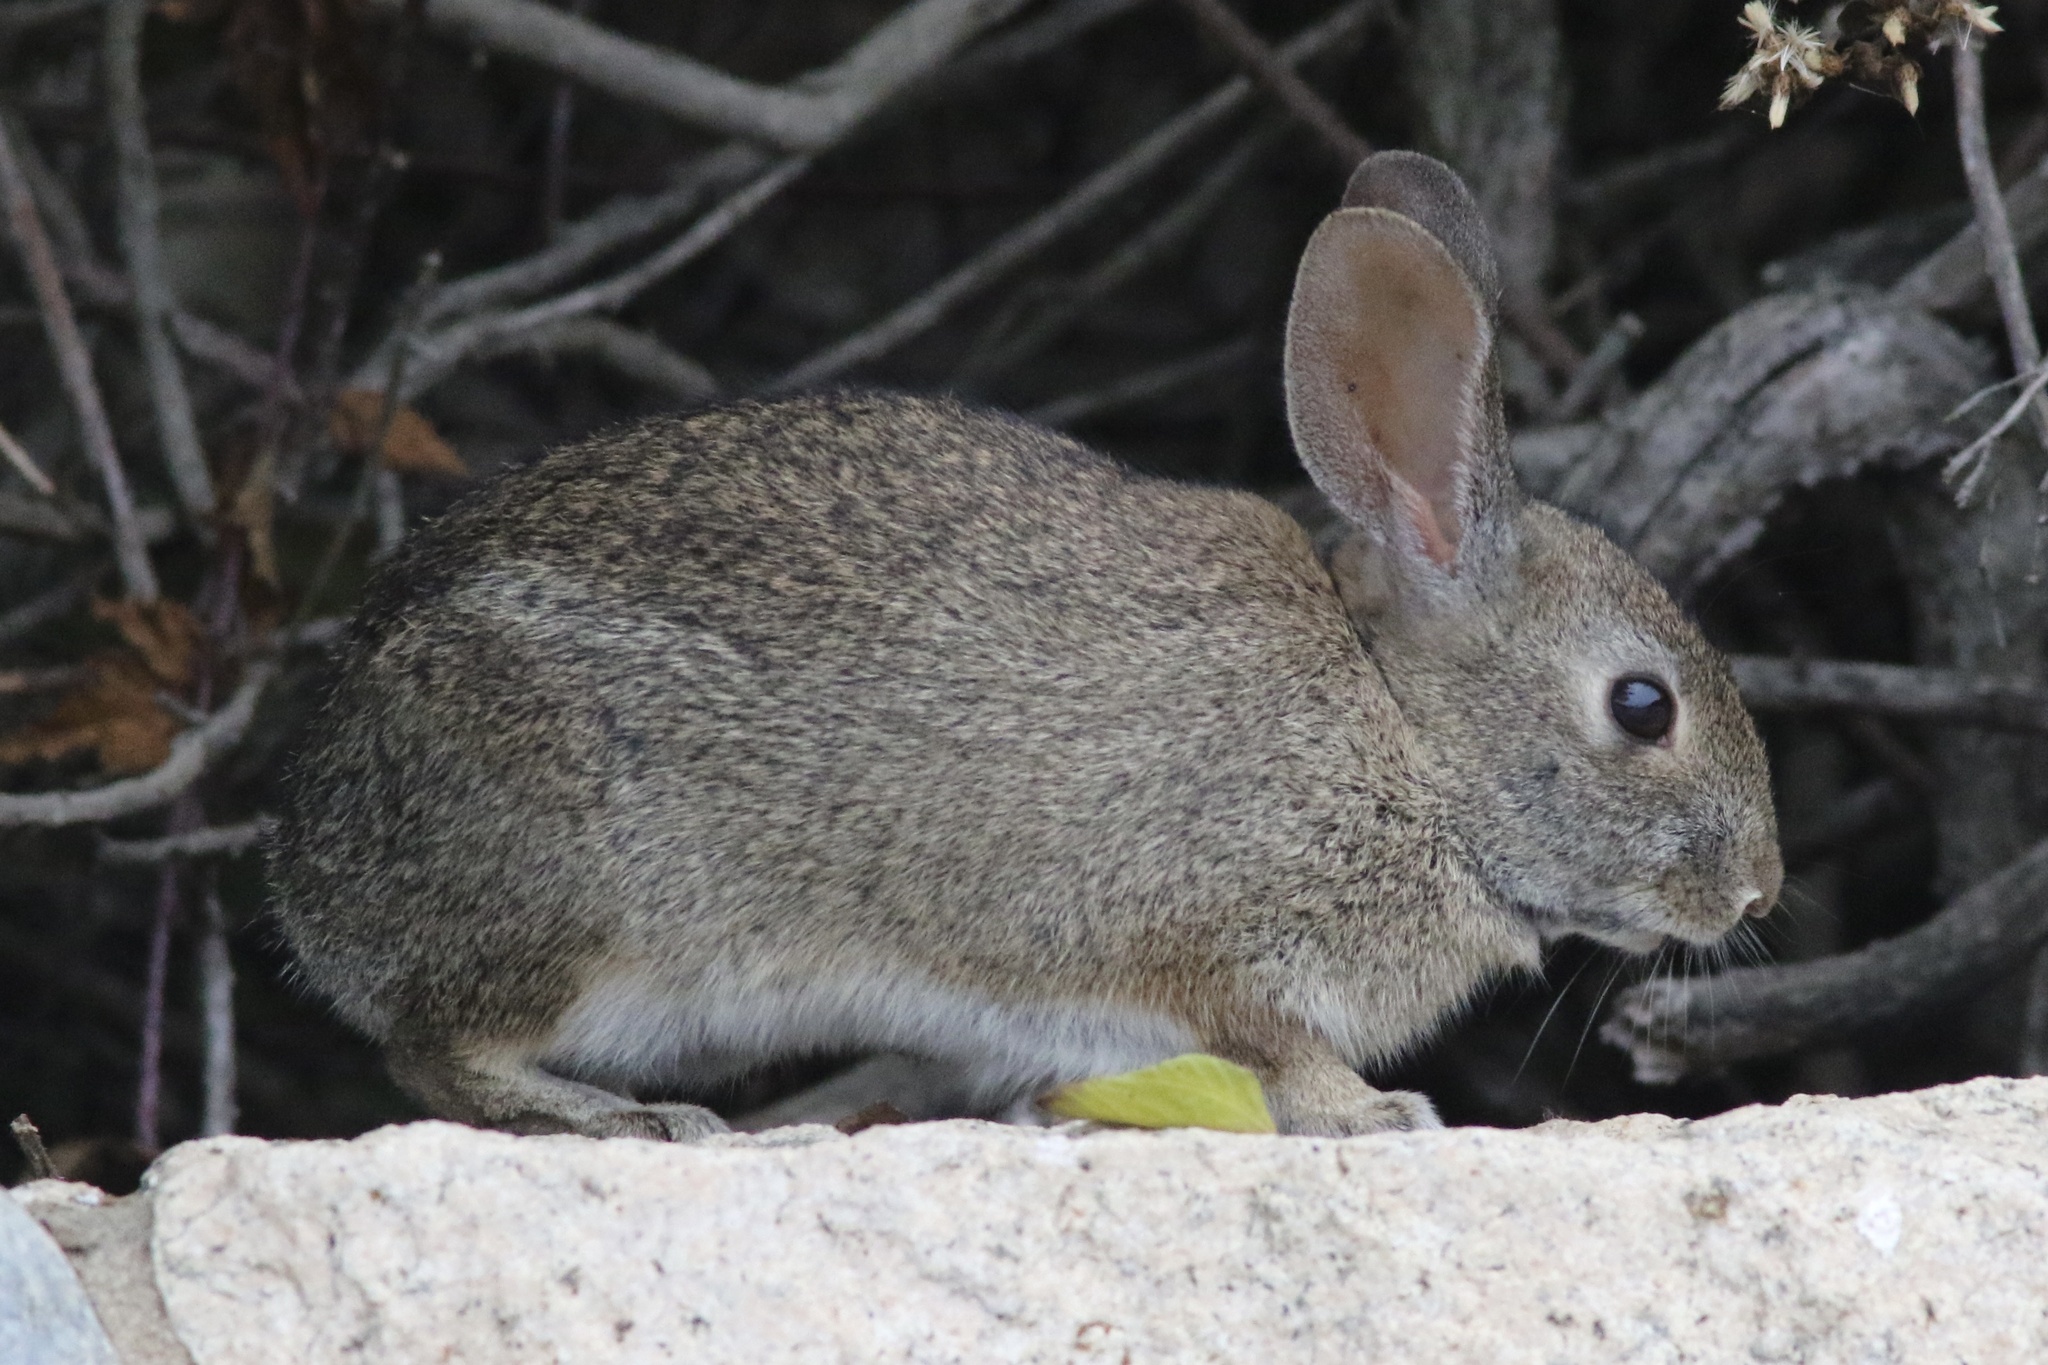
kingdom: Animalia
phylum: Chordata
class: Mammalia
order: Lagomorpha
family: Leporidae
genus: Sylvilagus
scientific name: Sylvilagus bachmani
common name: Brush rabbit
